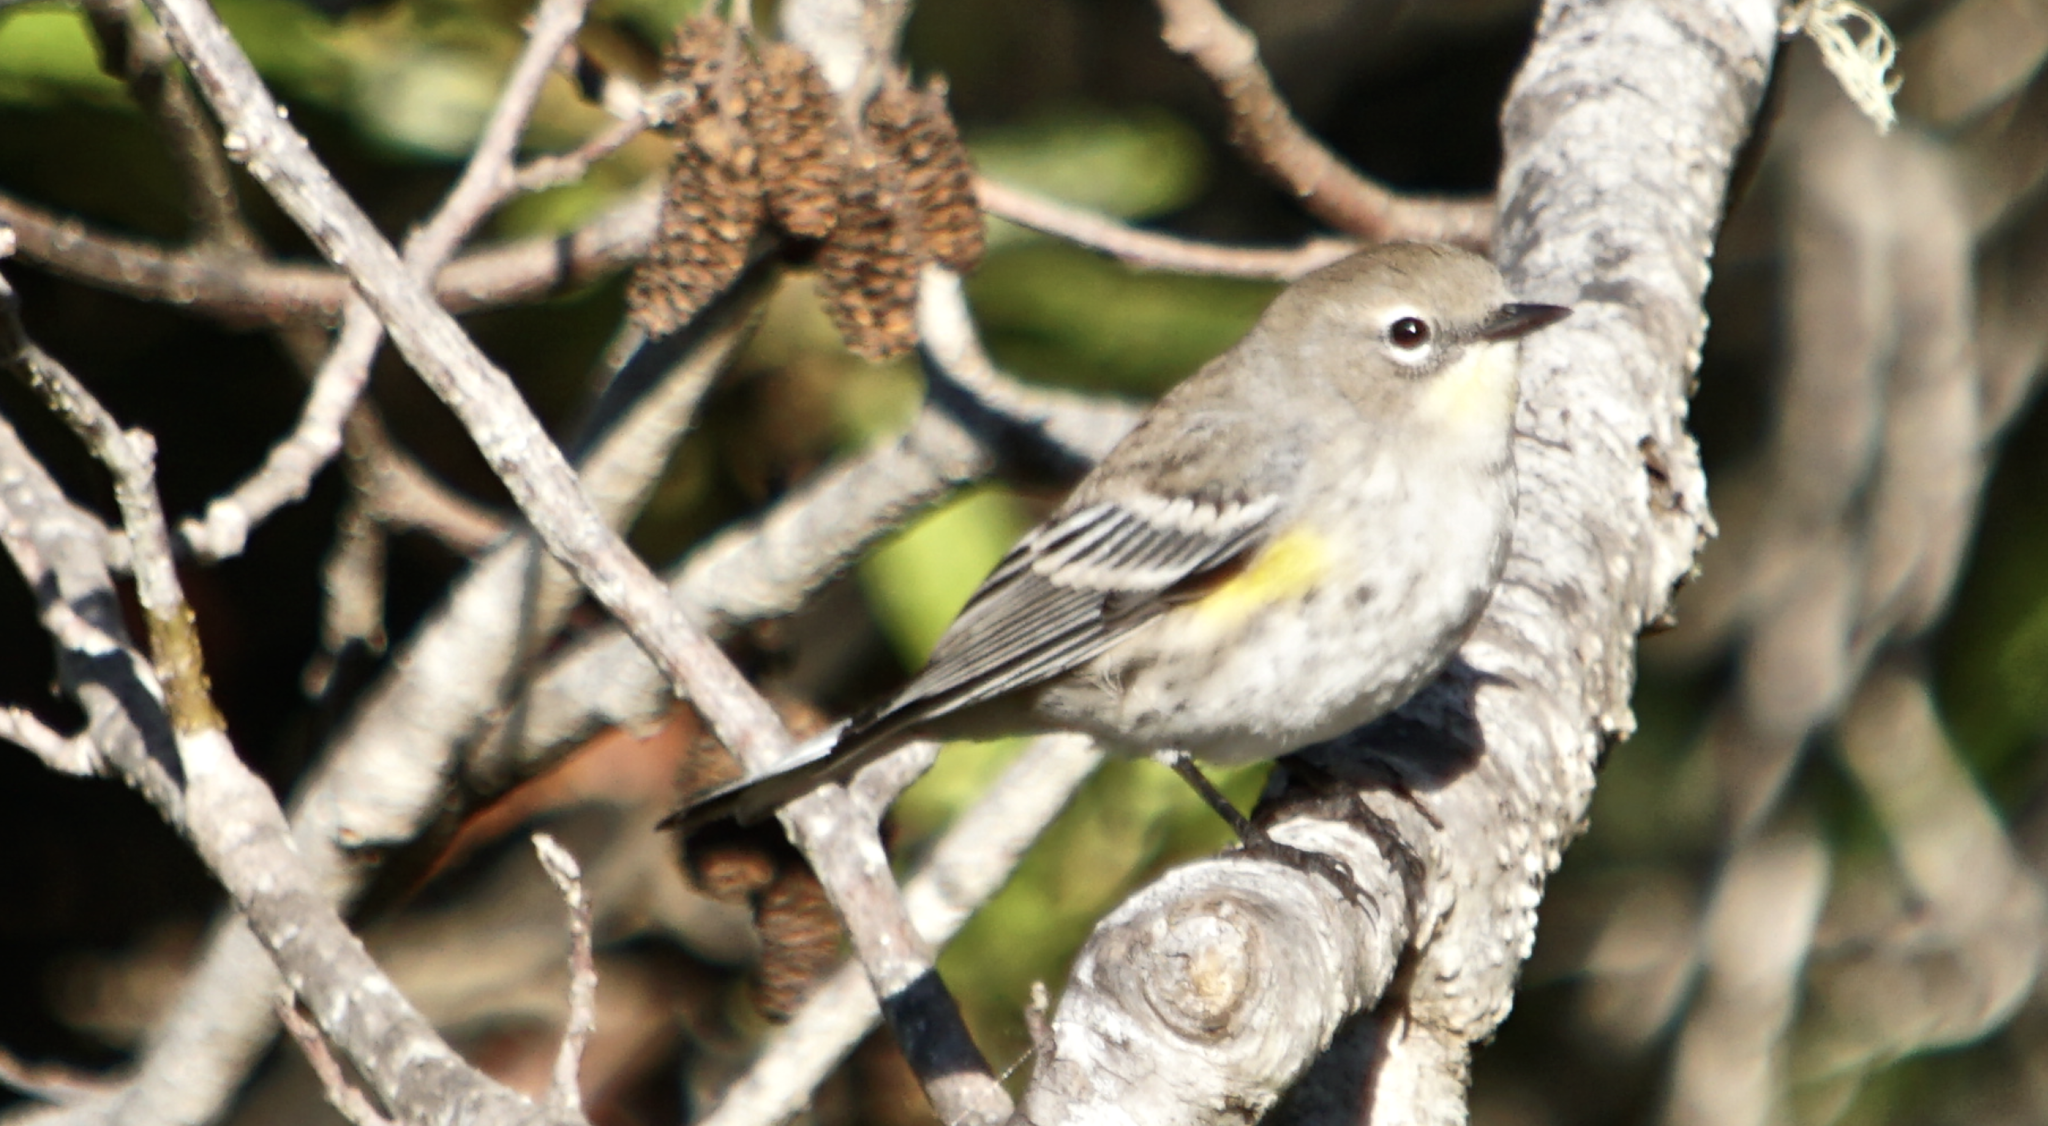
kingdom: Animalia
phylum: Chordata
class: Aves
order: Passeriformes
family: Parulidae
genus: Setophaga
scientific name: Setophaga coronata
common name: Myrtle warbler
